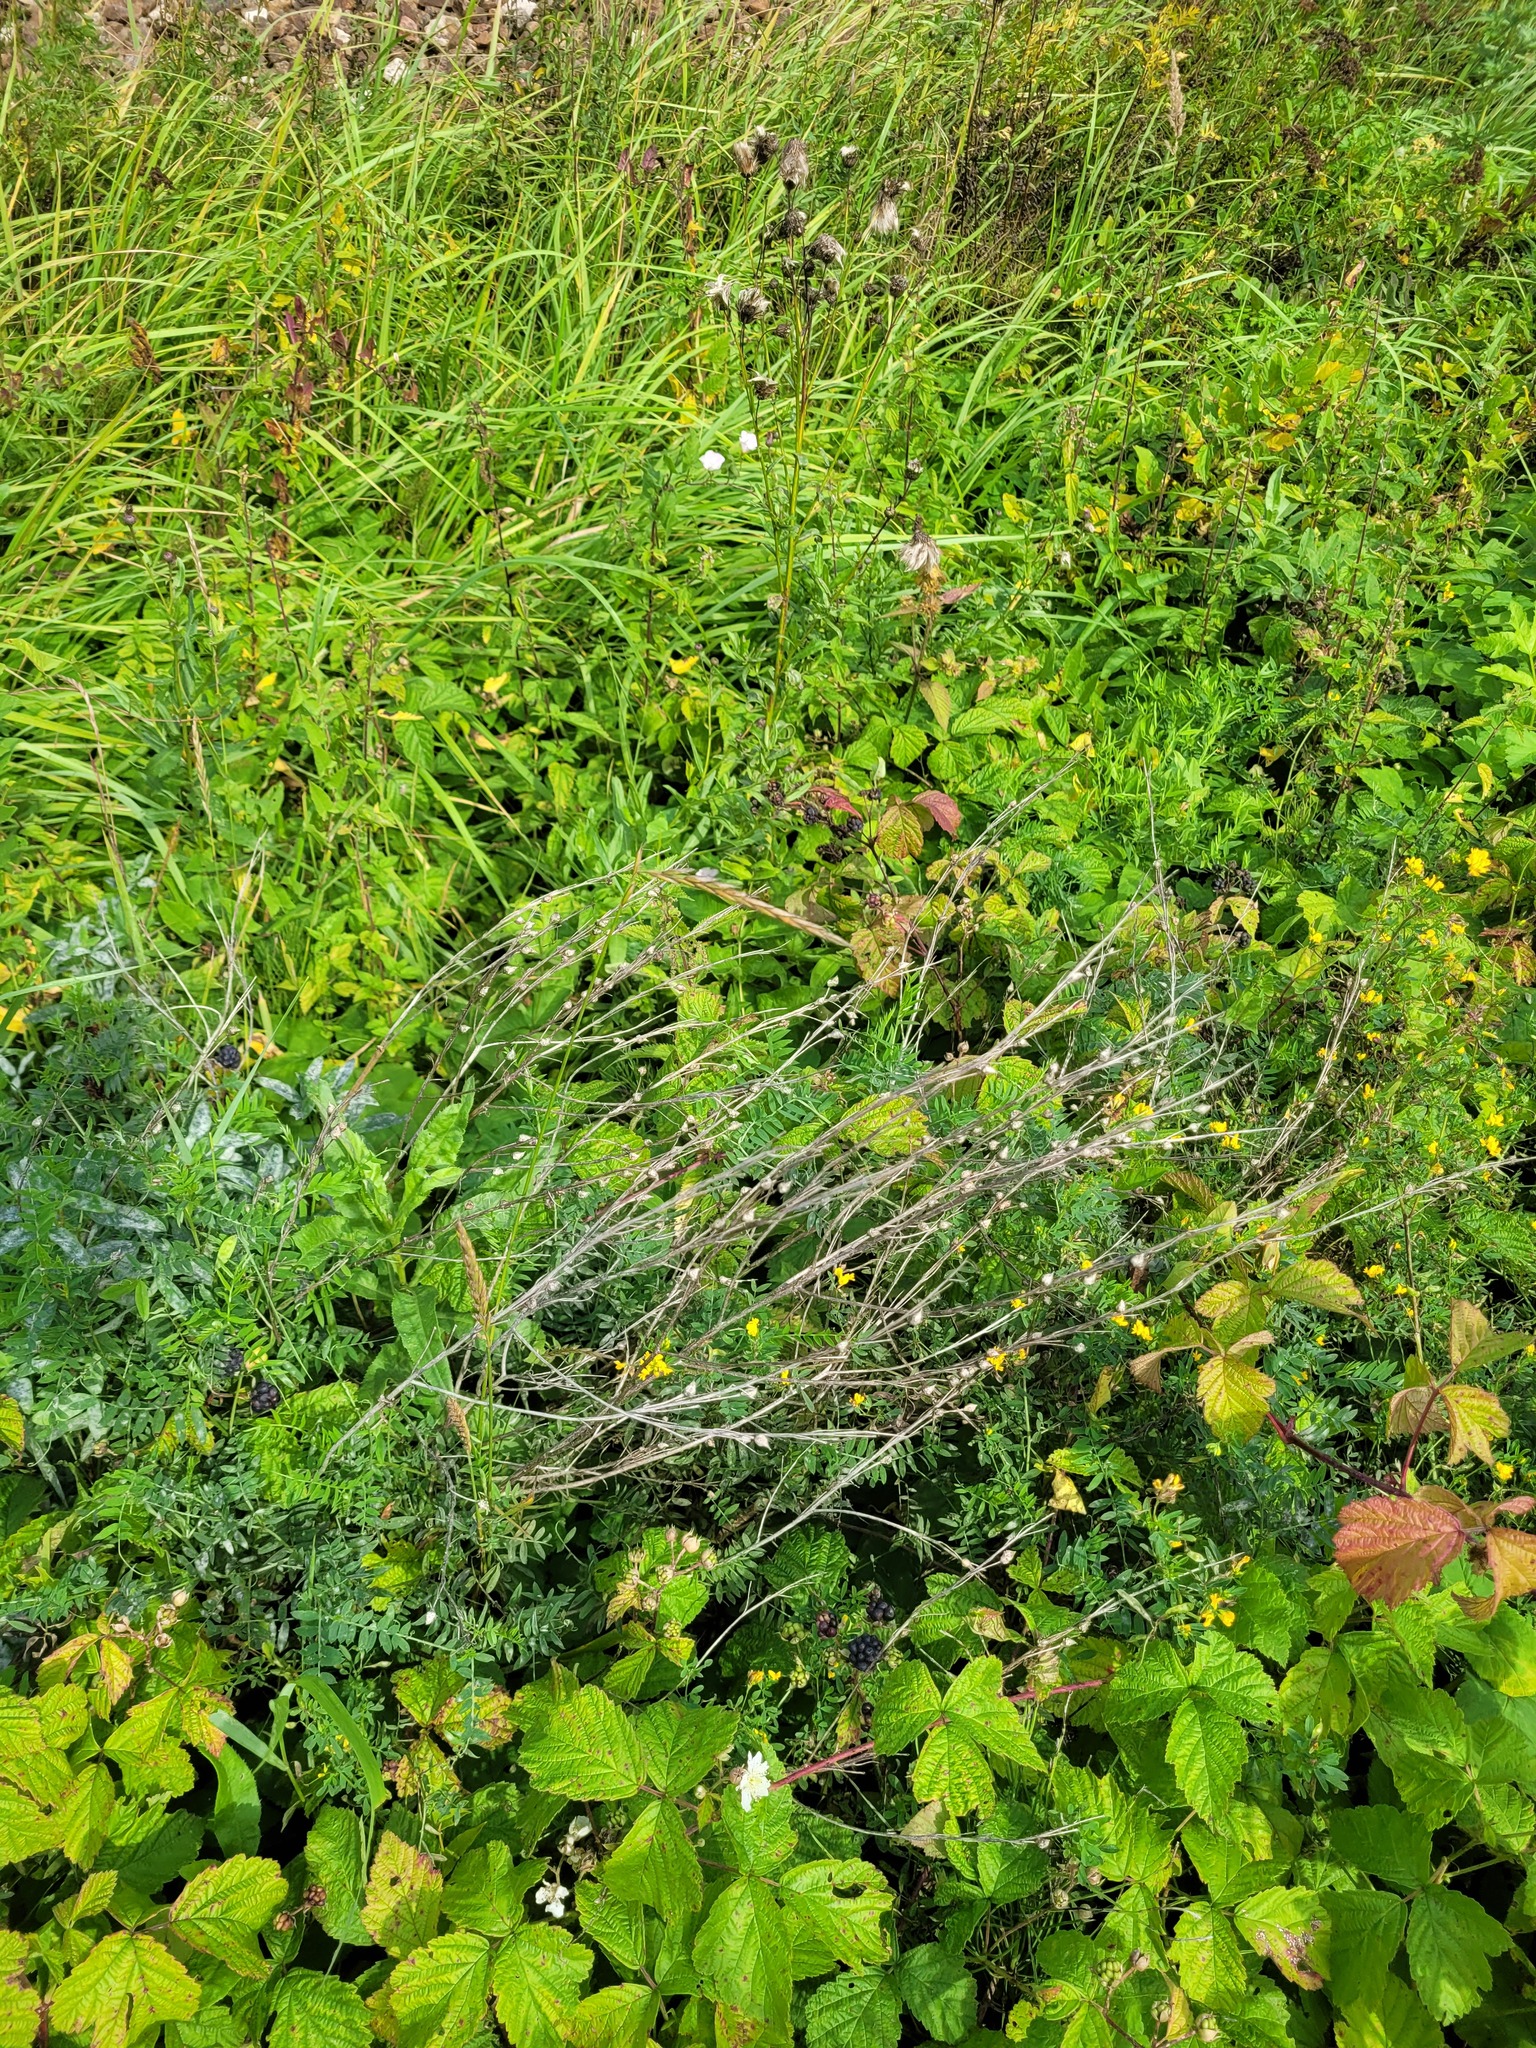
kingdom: Plantae
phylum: Tracheophyta
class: Magnoliopsida
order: Brassicales
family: Brassicaceae
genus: Bunias
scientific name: Bunias orientalis
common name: Warty-cabbage
